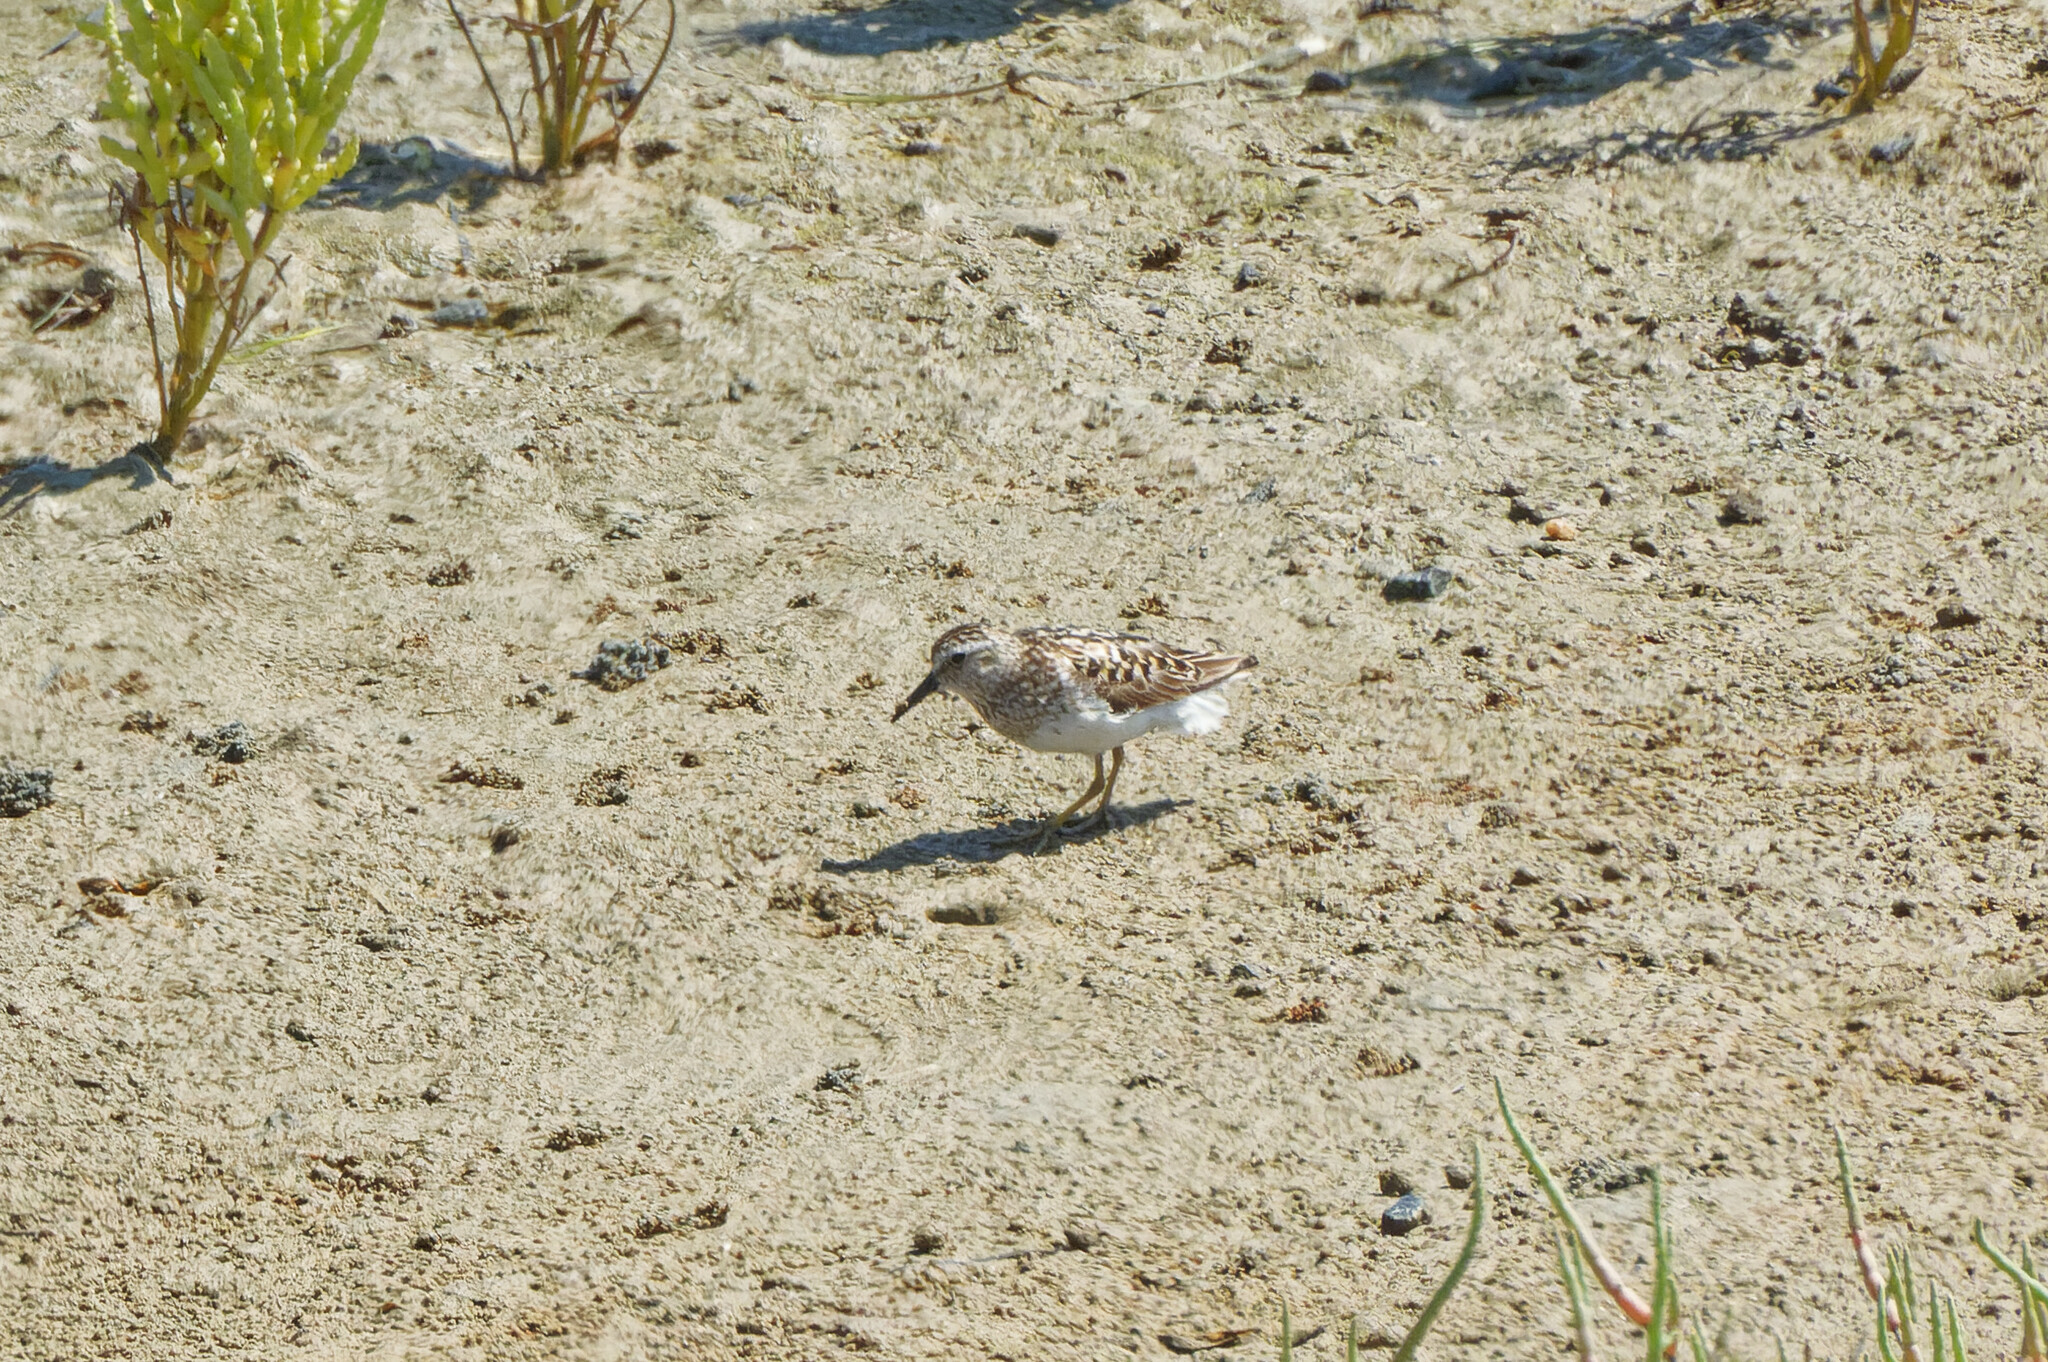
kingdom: Animalia
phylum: Chordata
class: Aves
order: Charadriiformes
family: Scolopacidae
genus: Calidris
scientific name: Calidris minutilla
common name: Least sandpiper
